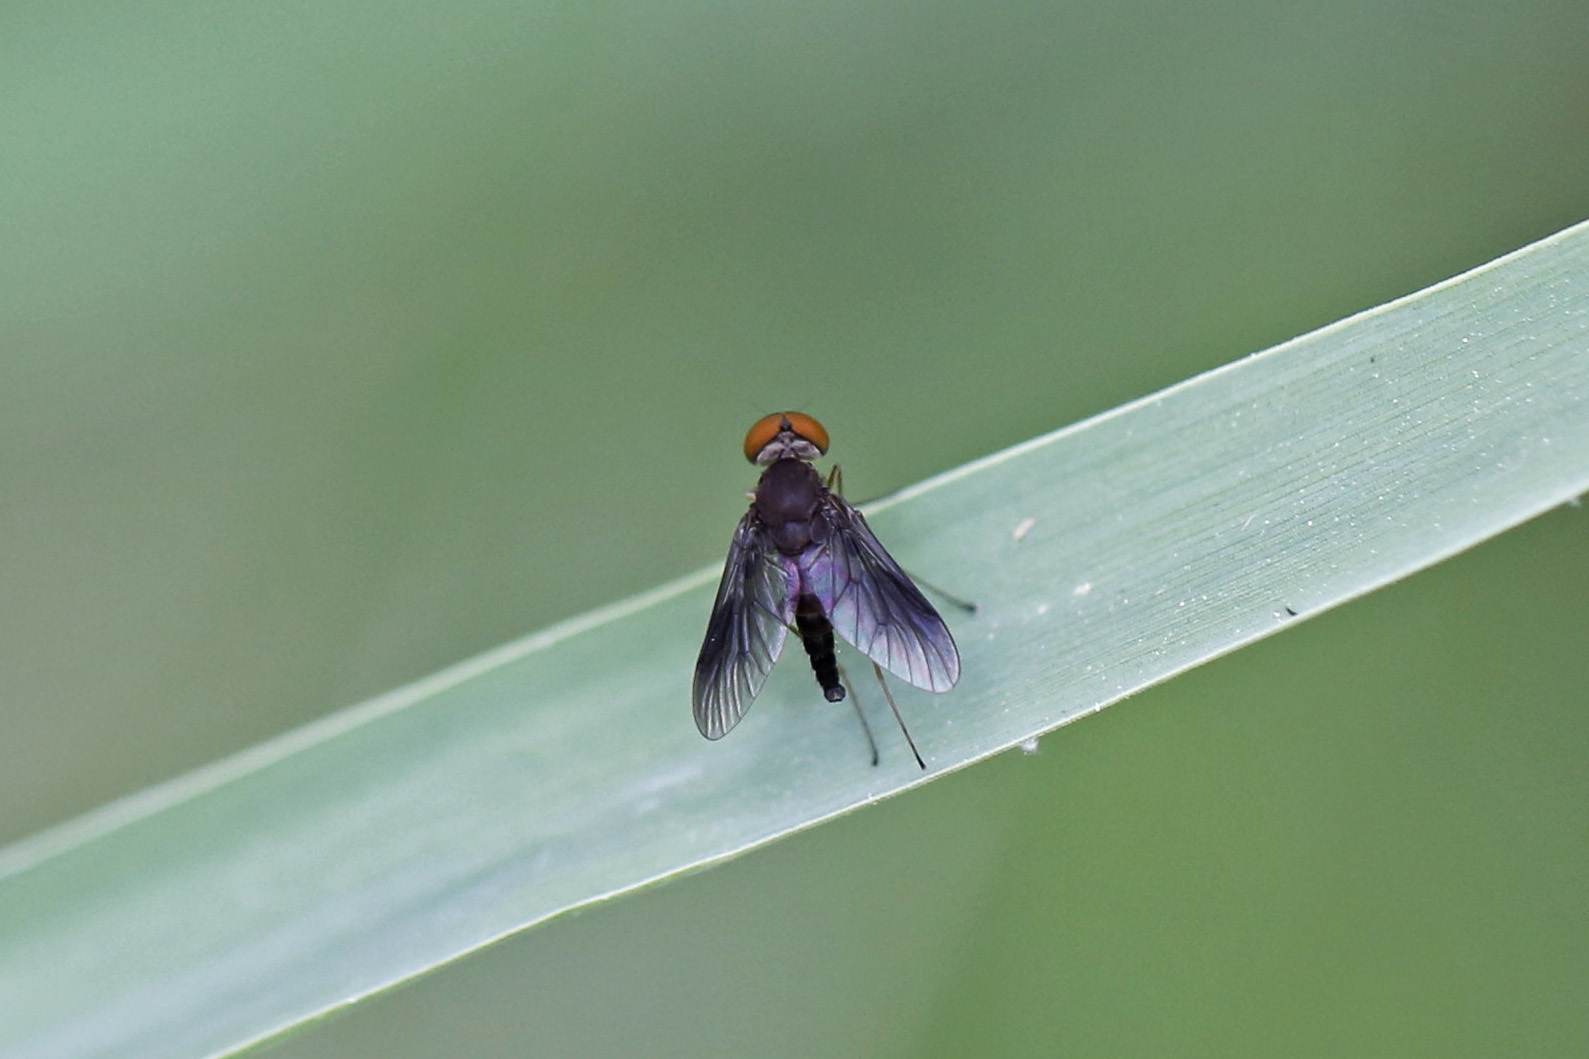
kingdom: Animalia
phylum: Arthropoda
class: Insecta
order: Diptera
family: Rhagionidae
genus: Chrysopilus
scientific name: Chrysopilus quadratus
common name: Quadrate snipe fly
